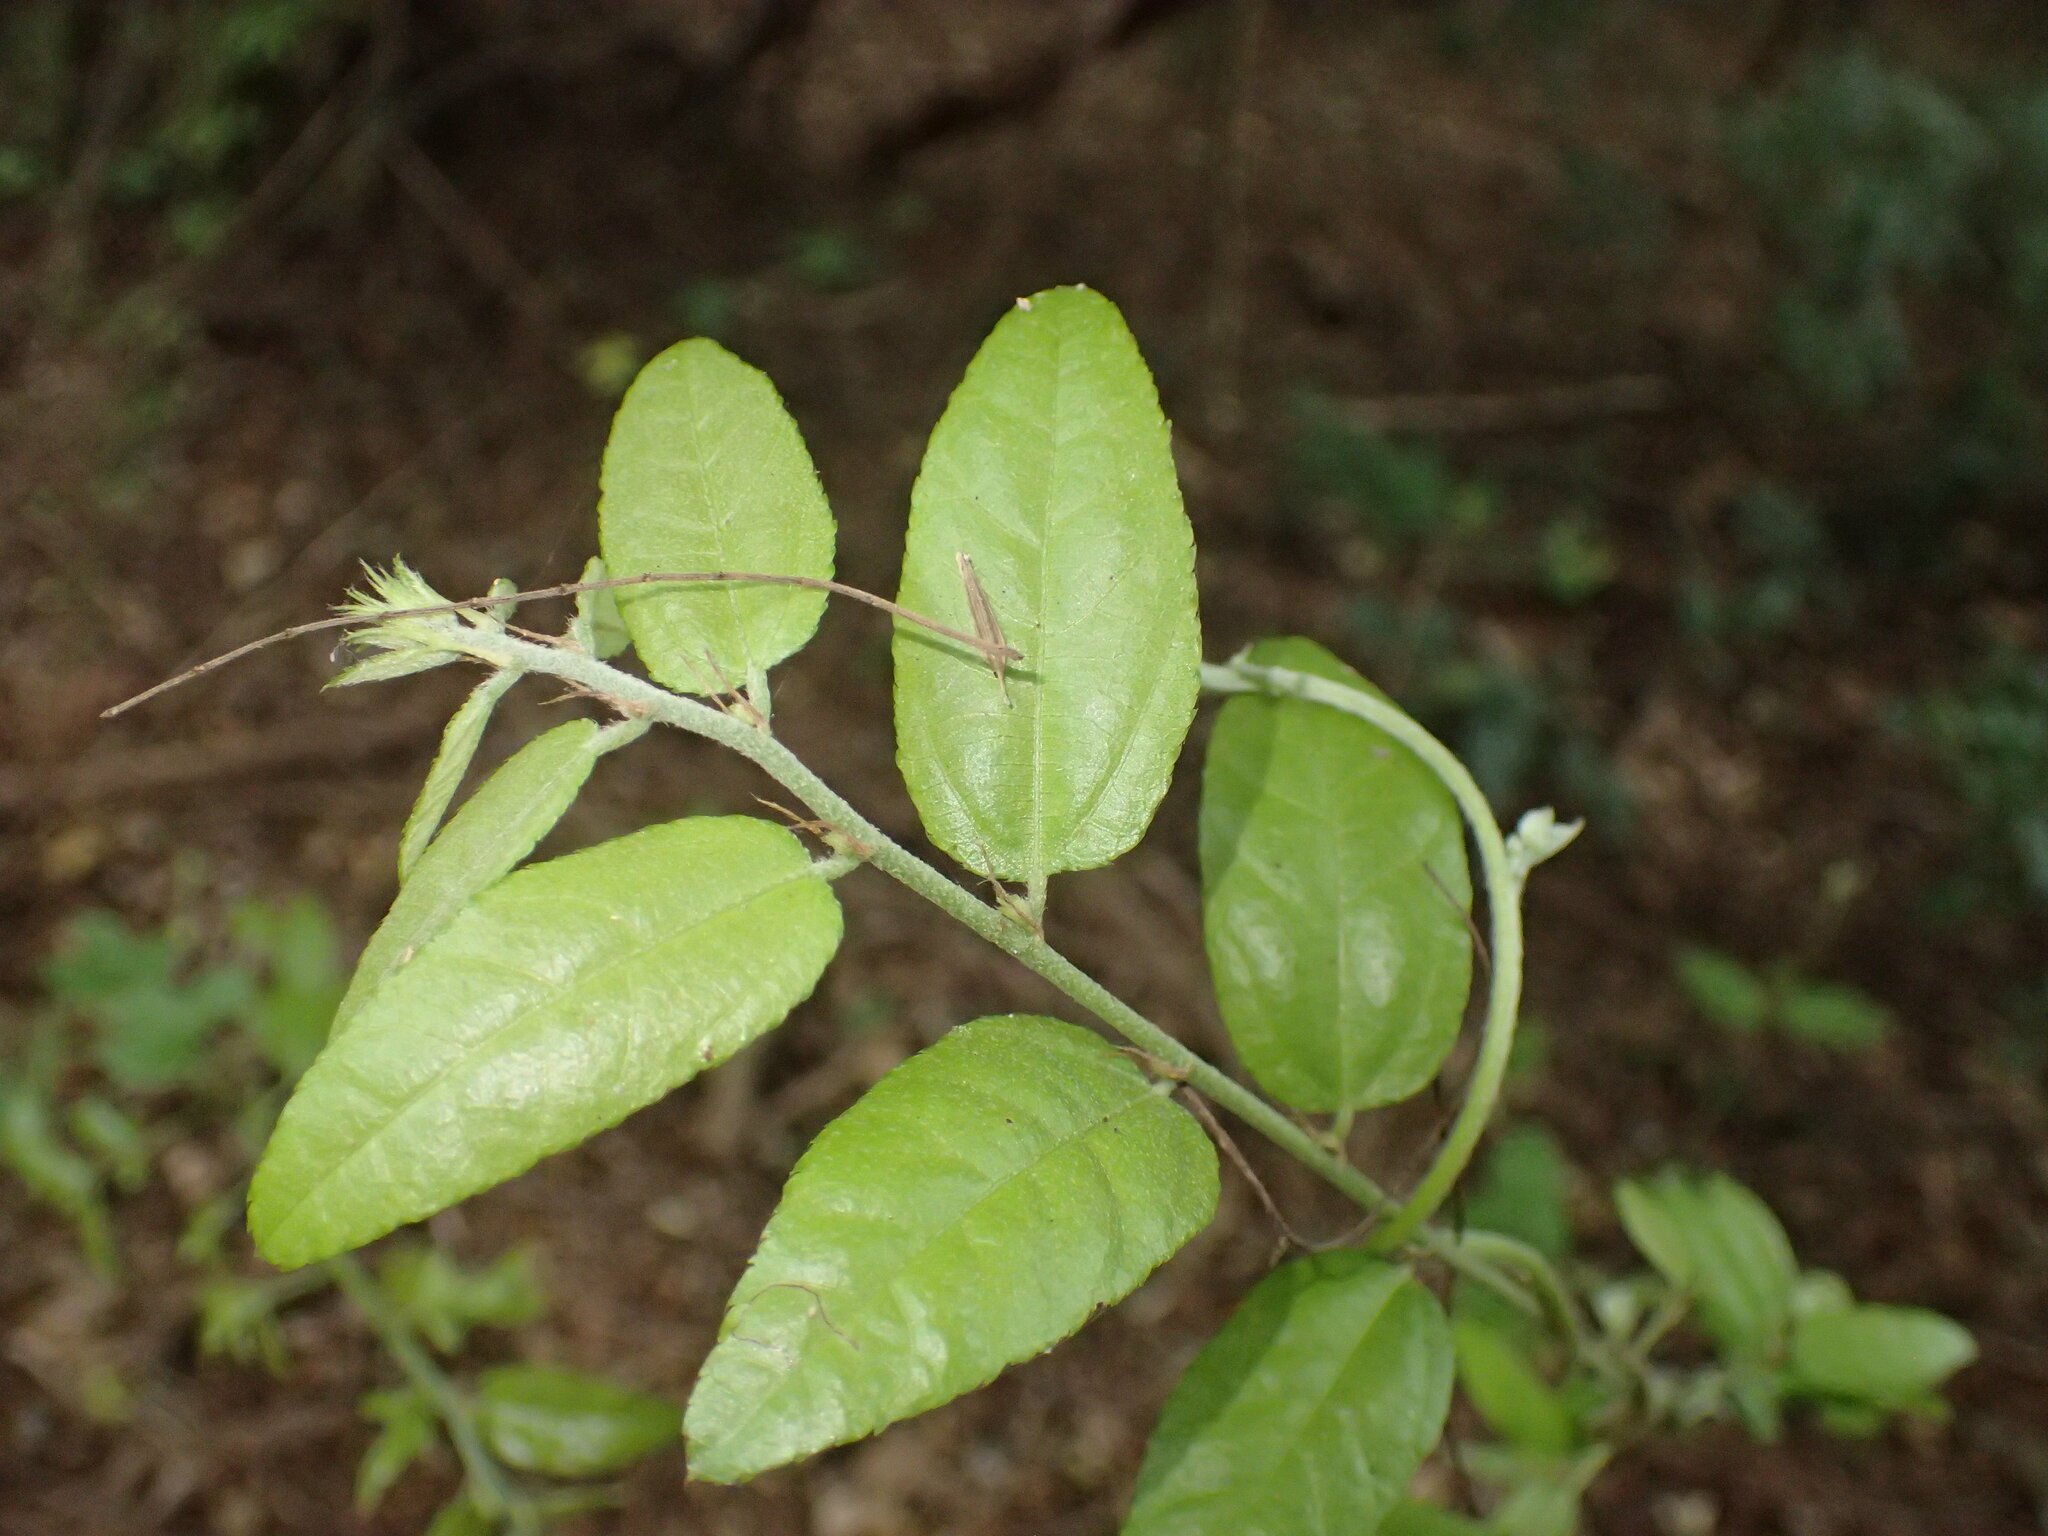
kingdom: Plantae
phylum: Tracheophyta
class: Magnoliopsida
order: Malvales
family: Malvaceae
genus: Grewia
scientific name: Grewia caffra
